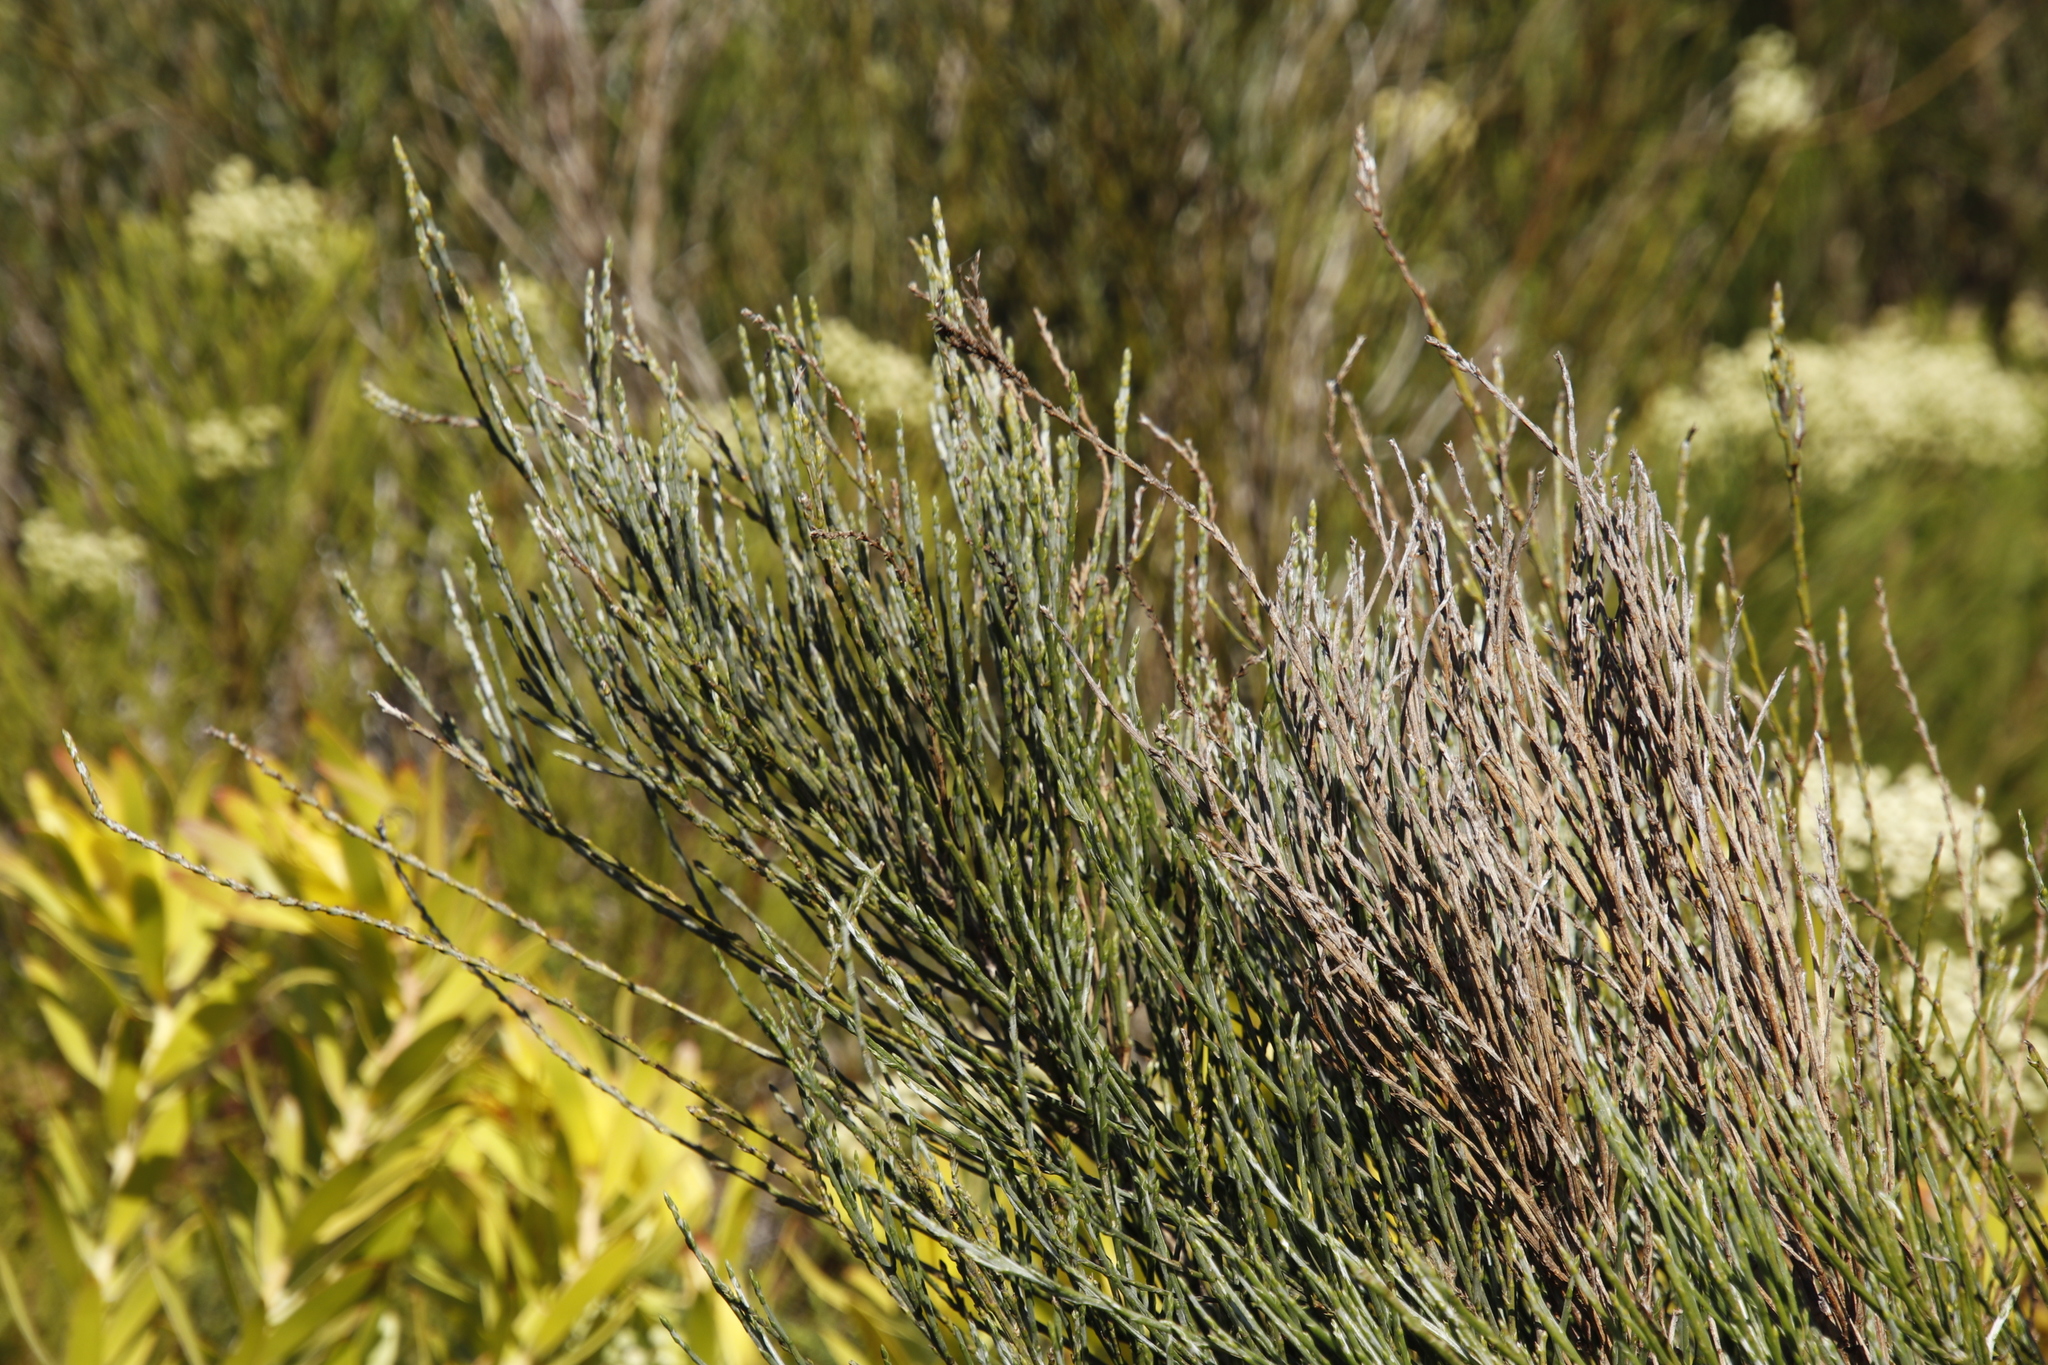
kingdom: Plantae
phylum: Tracheophyta
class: Magnoliopsida
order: Fabales
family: Fabaceae
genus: Psoralea
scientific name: Psoralea congesta
